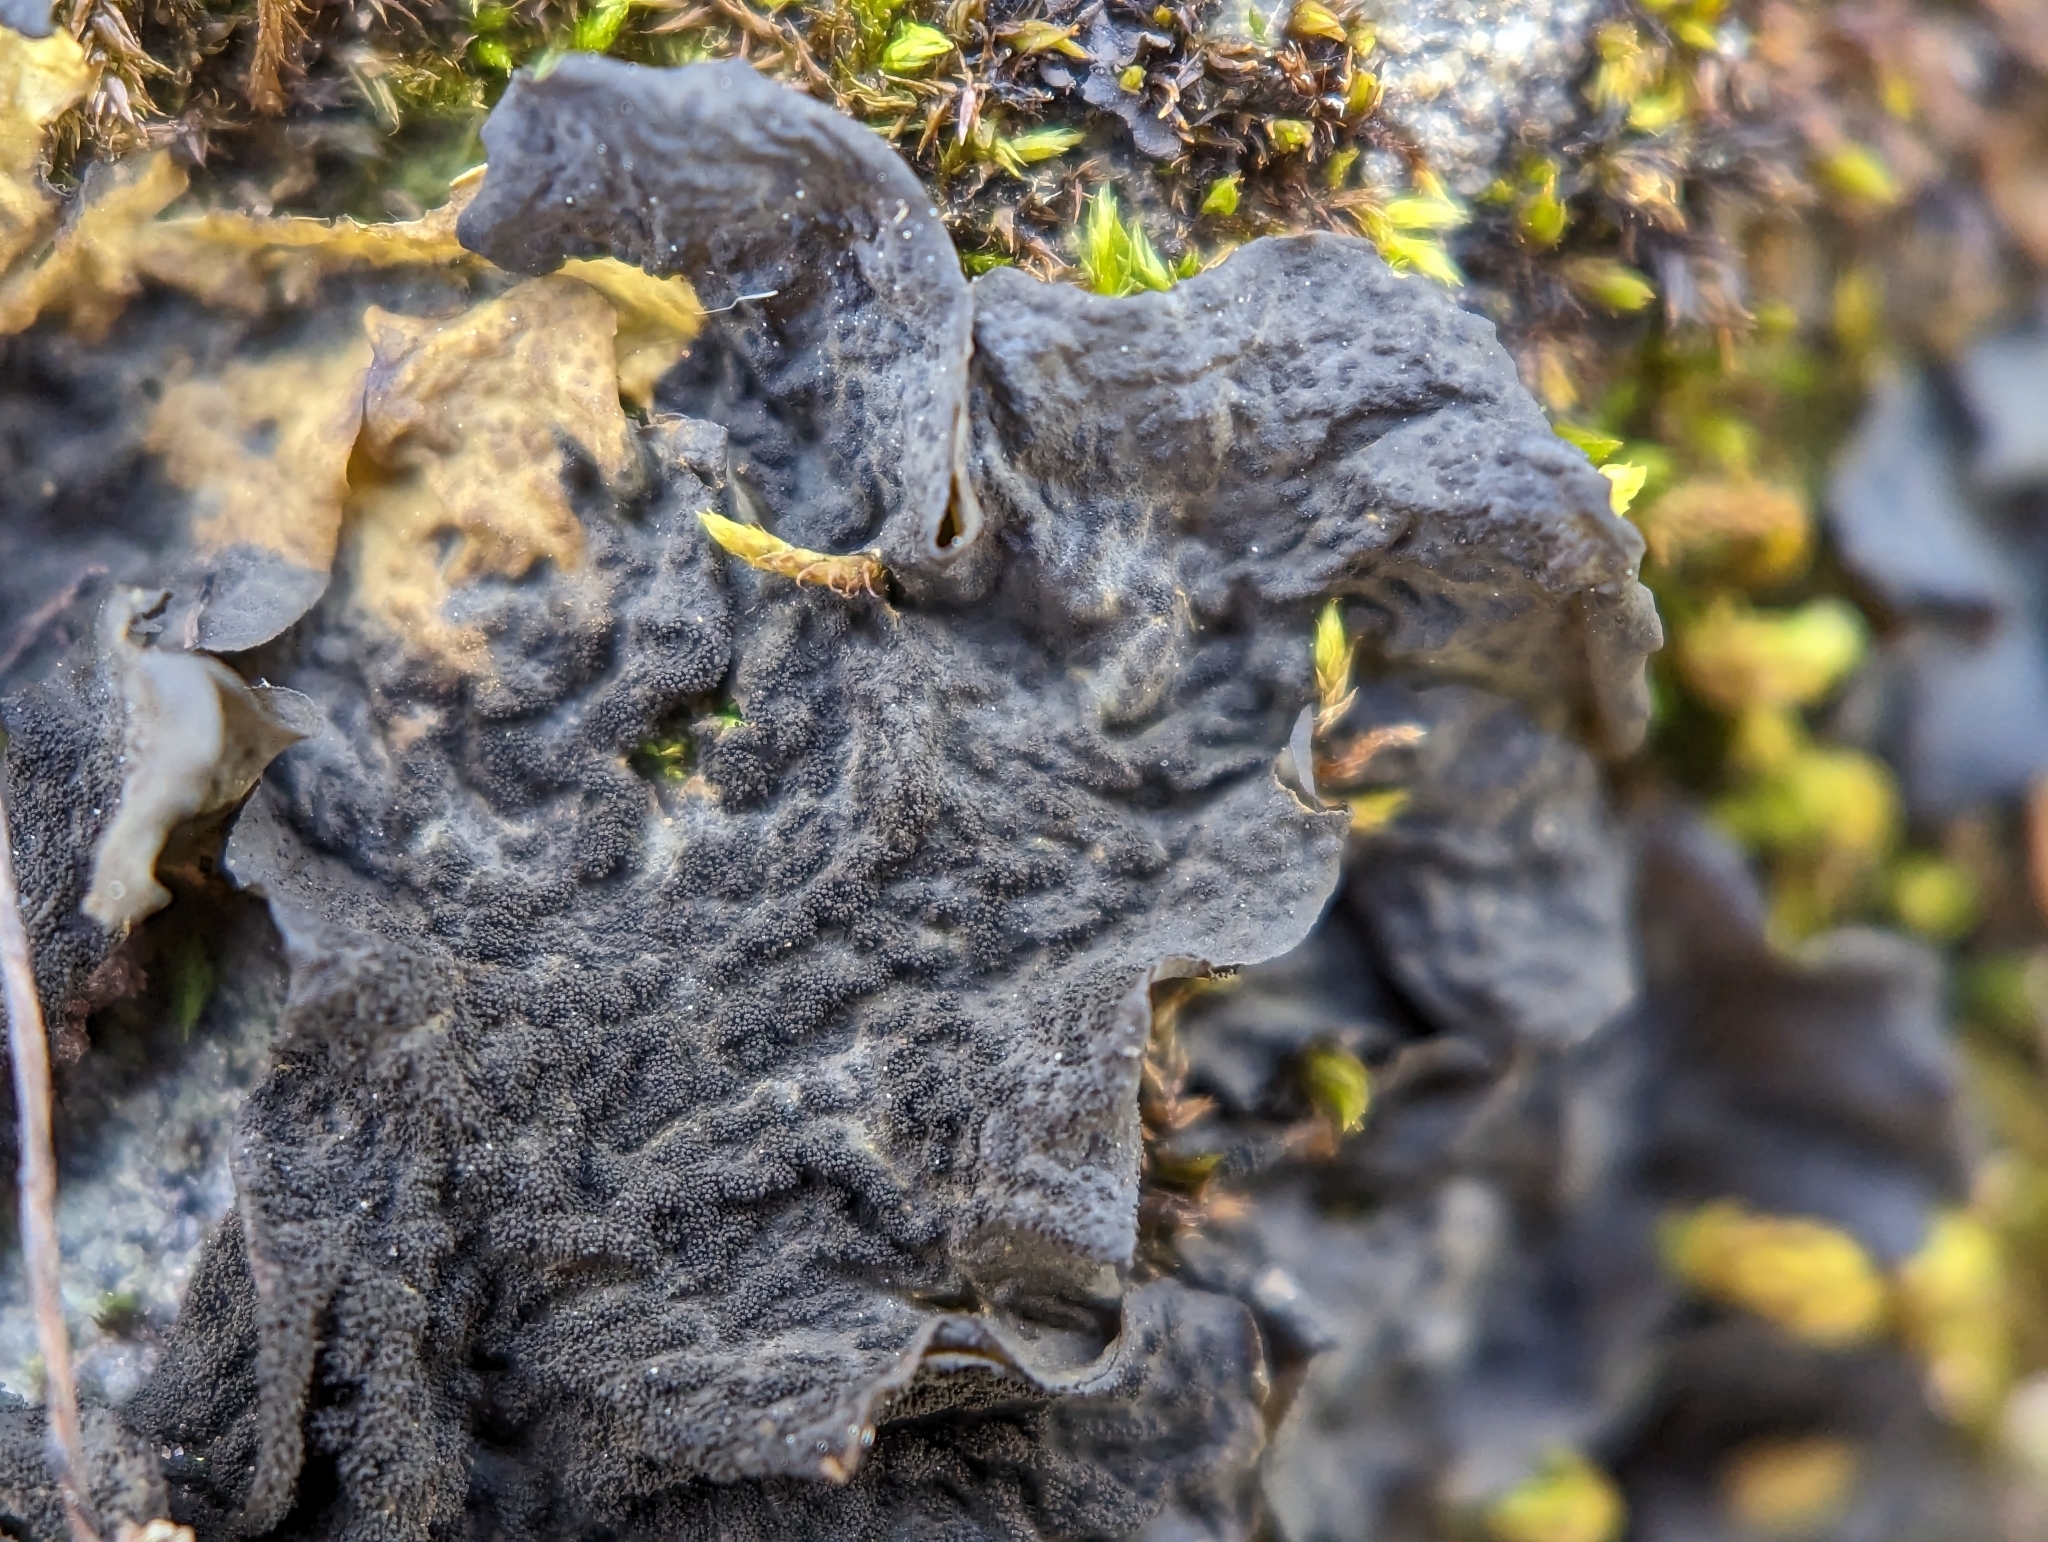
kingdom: Fungi
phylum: Ascomycota
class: Lecanoromycetes
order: Peltigerales
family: Collemataceae
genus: Collema
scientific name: Collema subflaccidum
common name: Tree jelly
